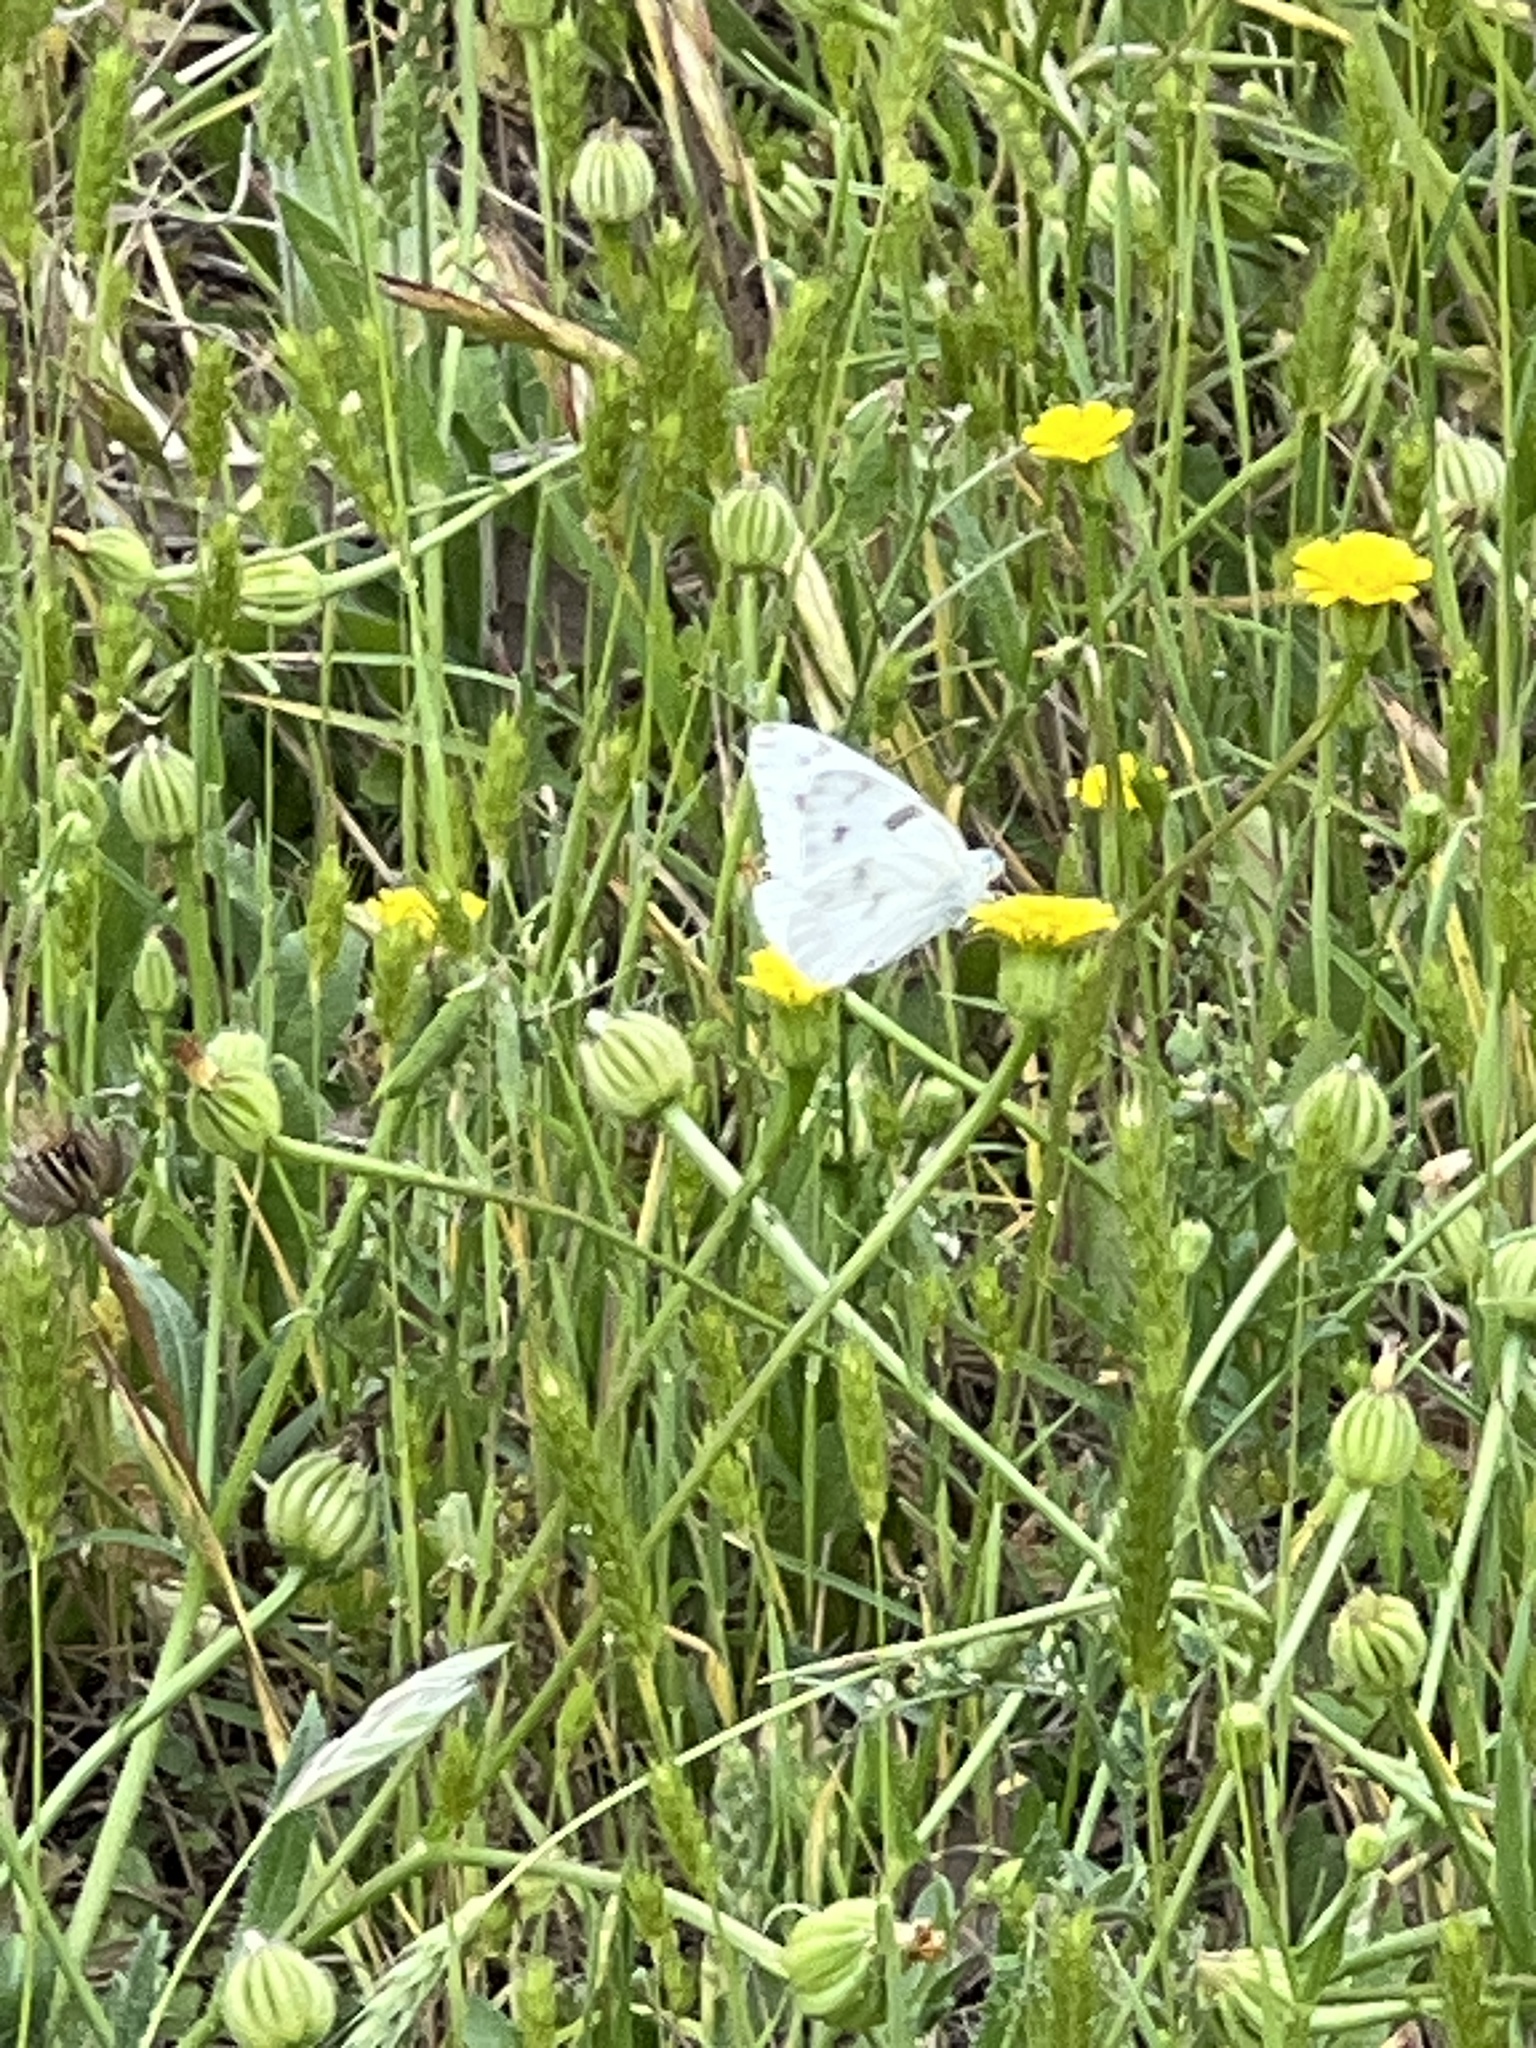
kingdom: Animalia
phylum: Arthropoda
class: Insecta
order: Lepidoptera
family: Pieridae
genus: Pontia
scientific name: Pontia protodice
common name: Checkered white
